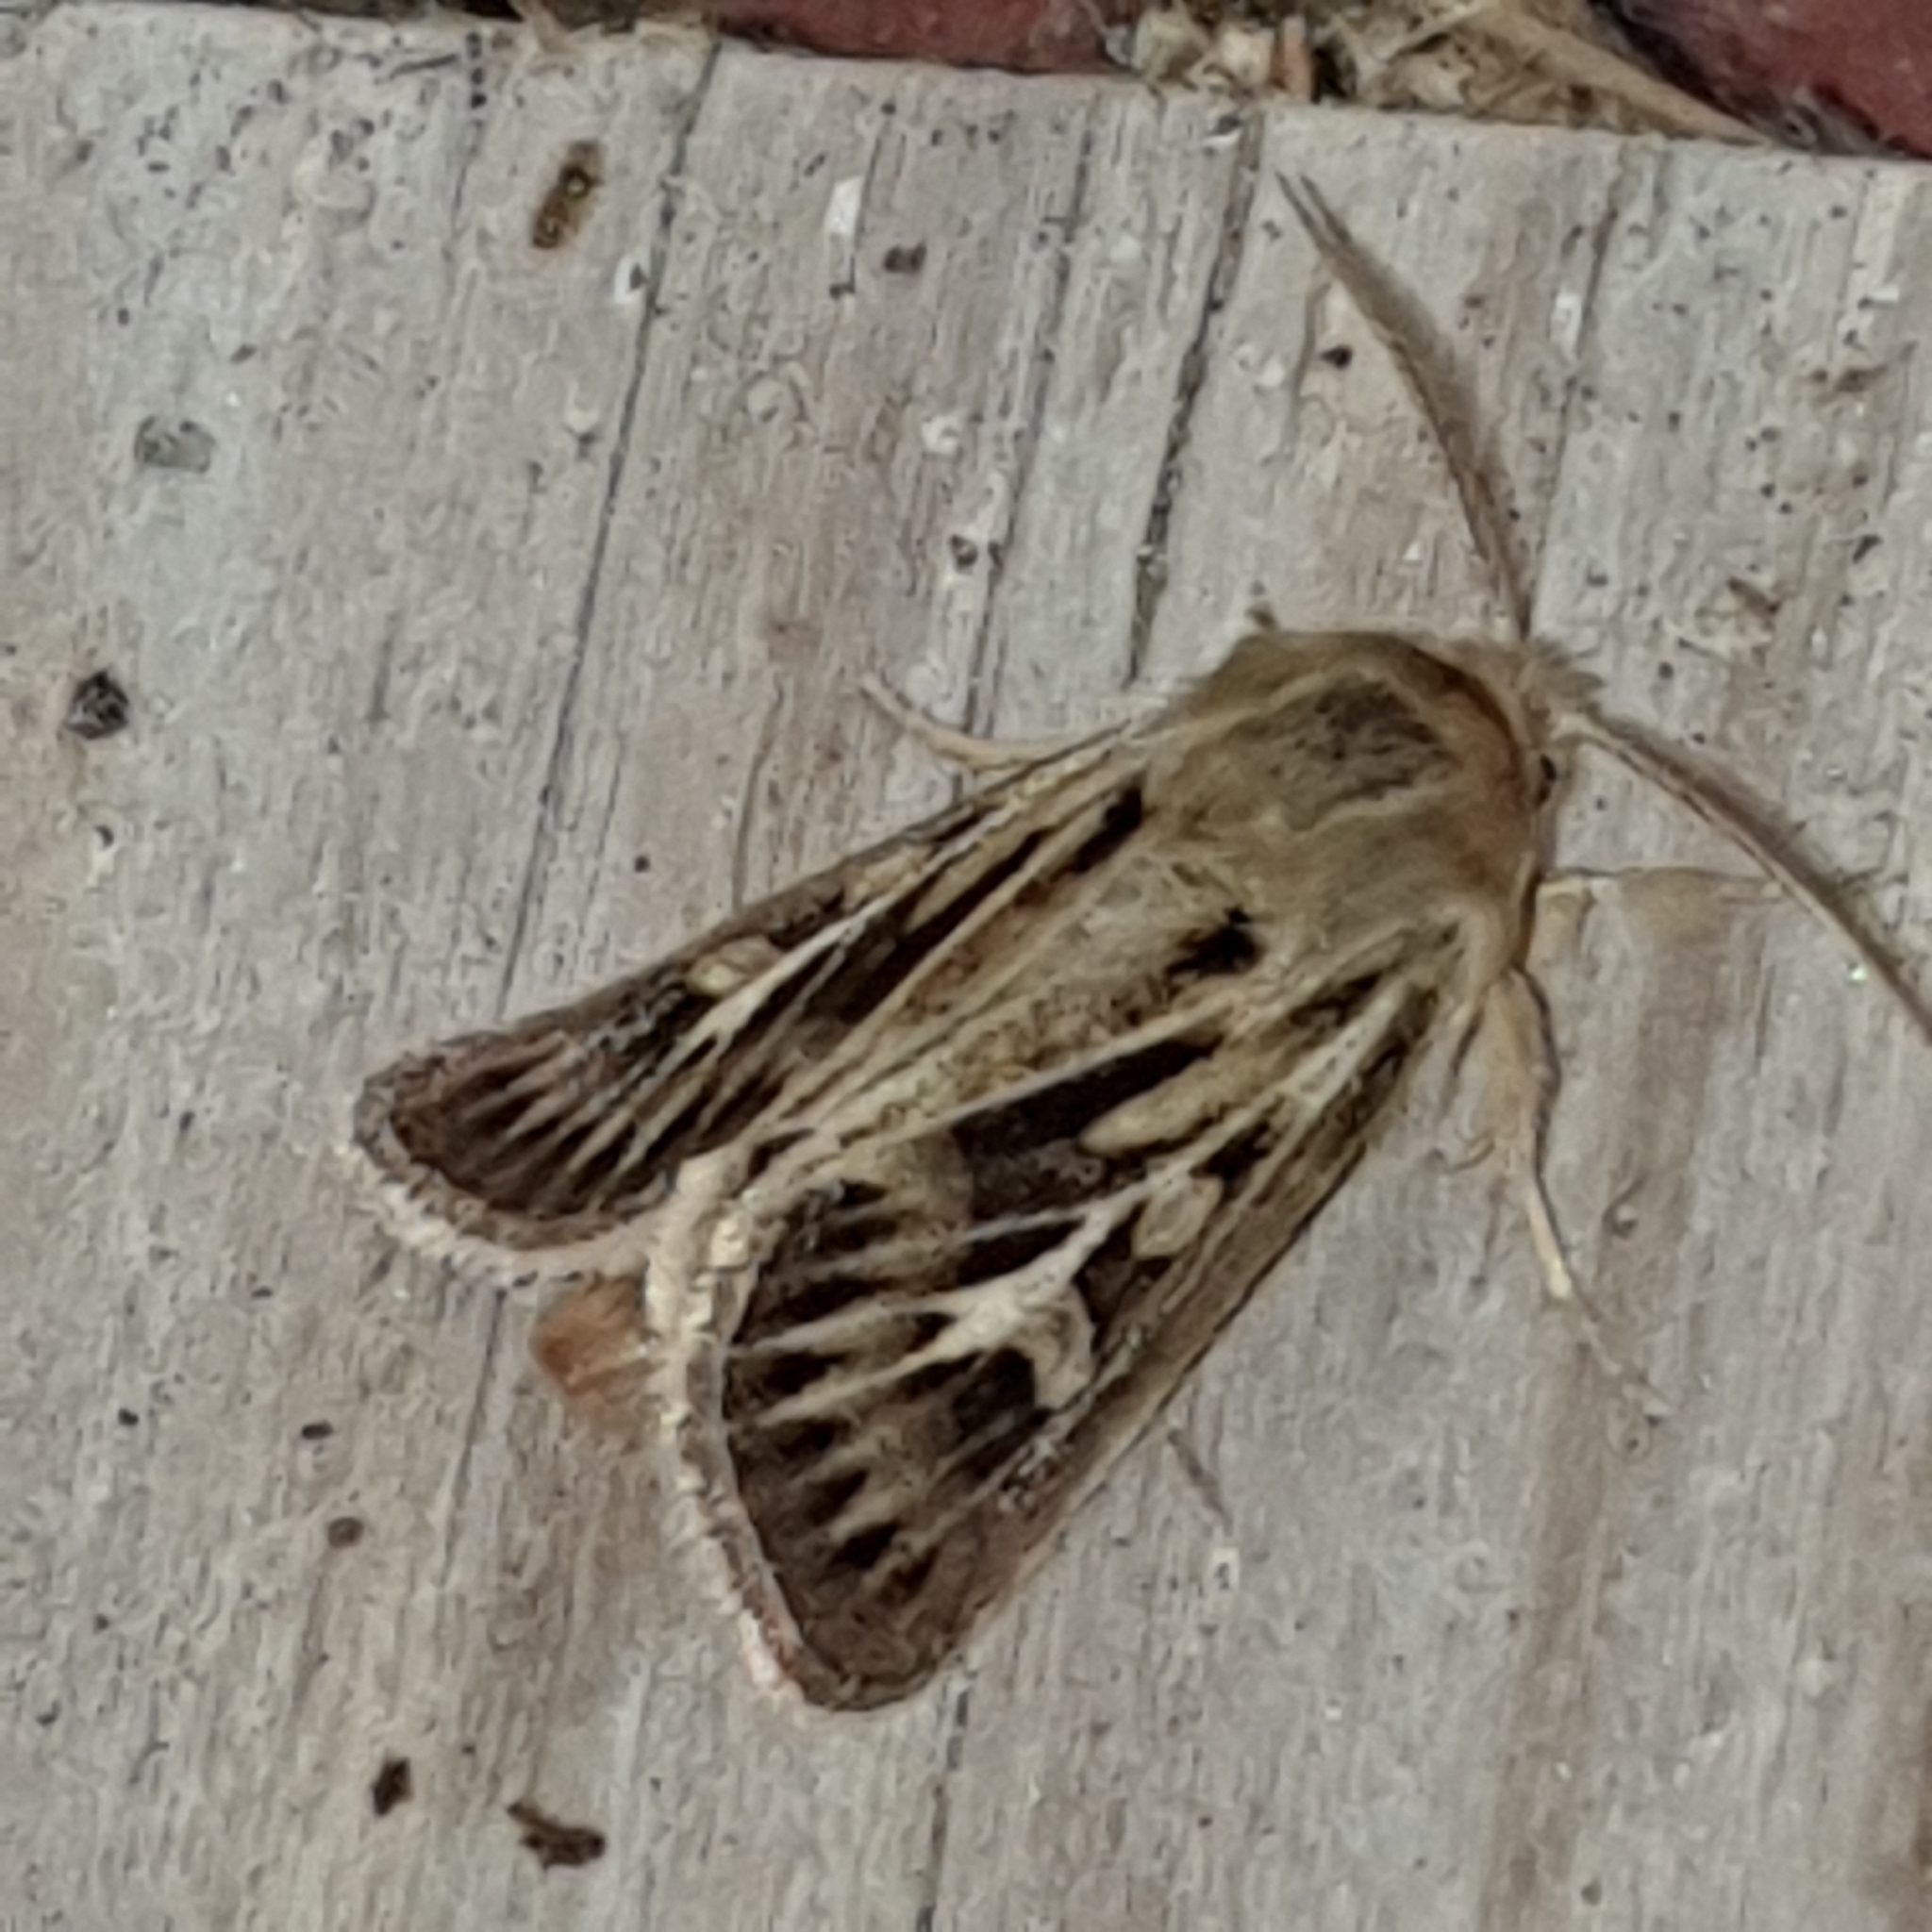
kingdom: Animalia
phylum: Arthropoda
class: Insecta
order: Lepidoptera
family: Noctuidae
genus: Cerapteryx
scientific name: Cerapteryx graminis
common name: Antler moth
